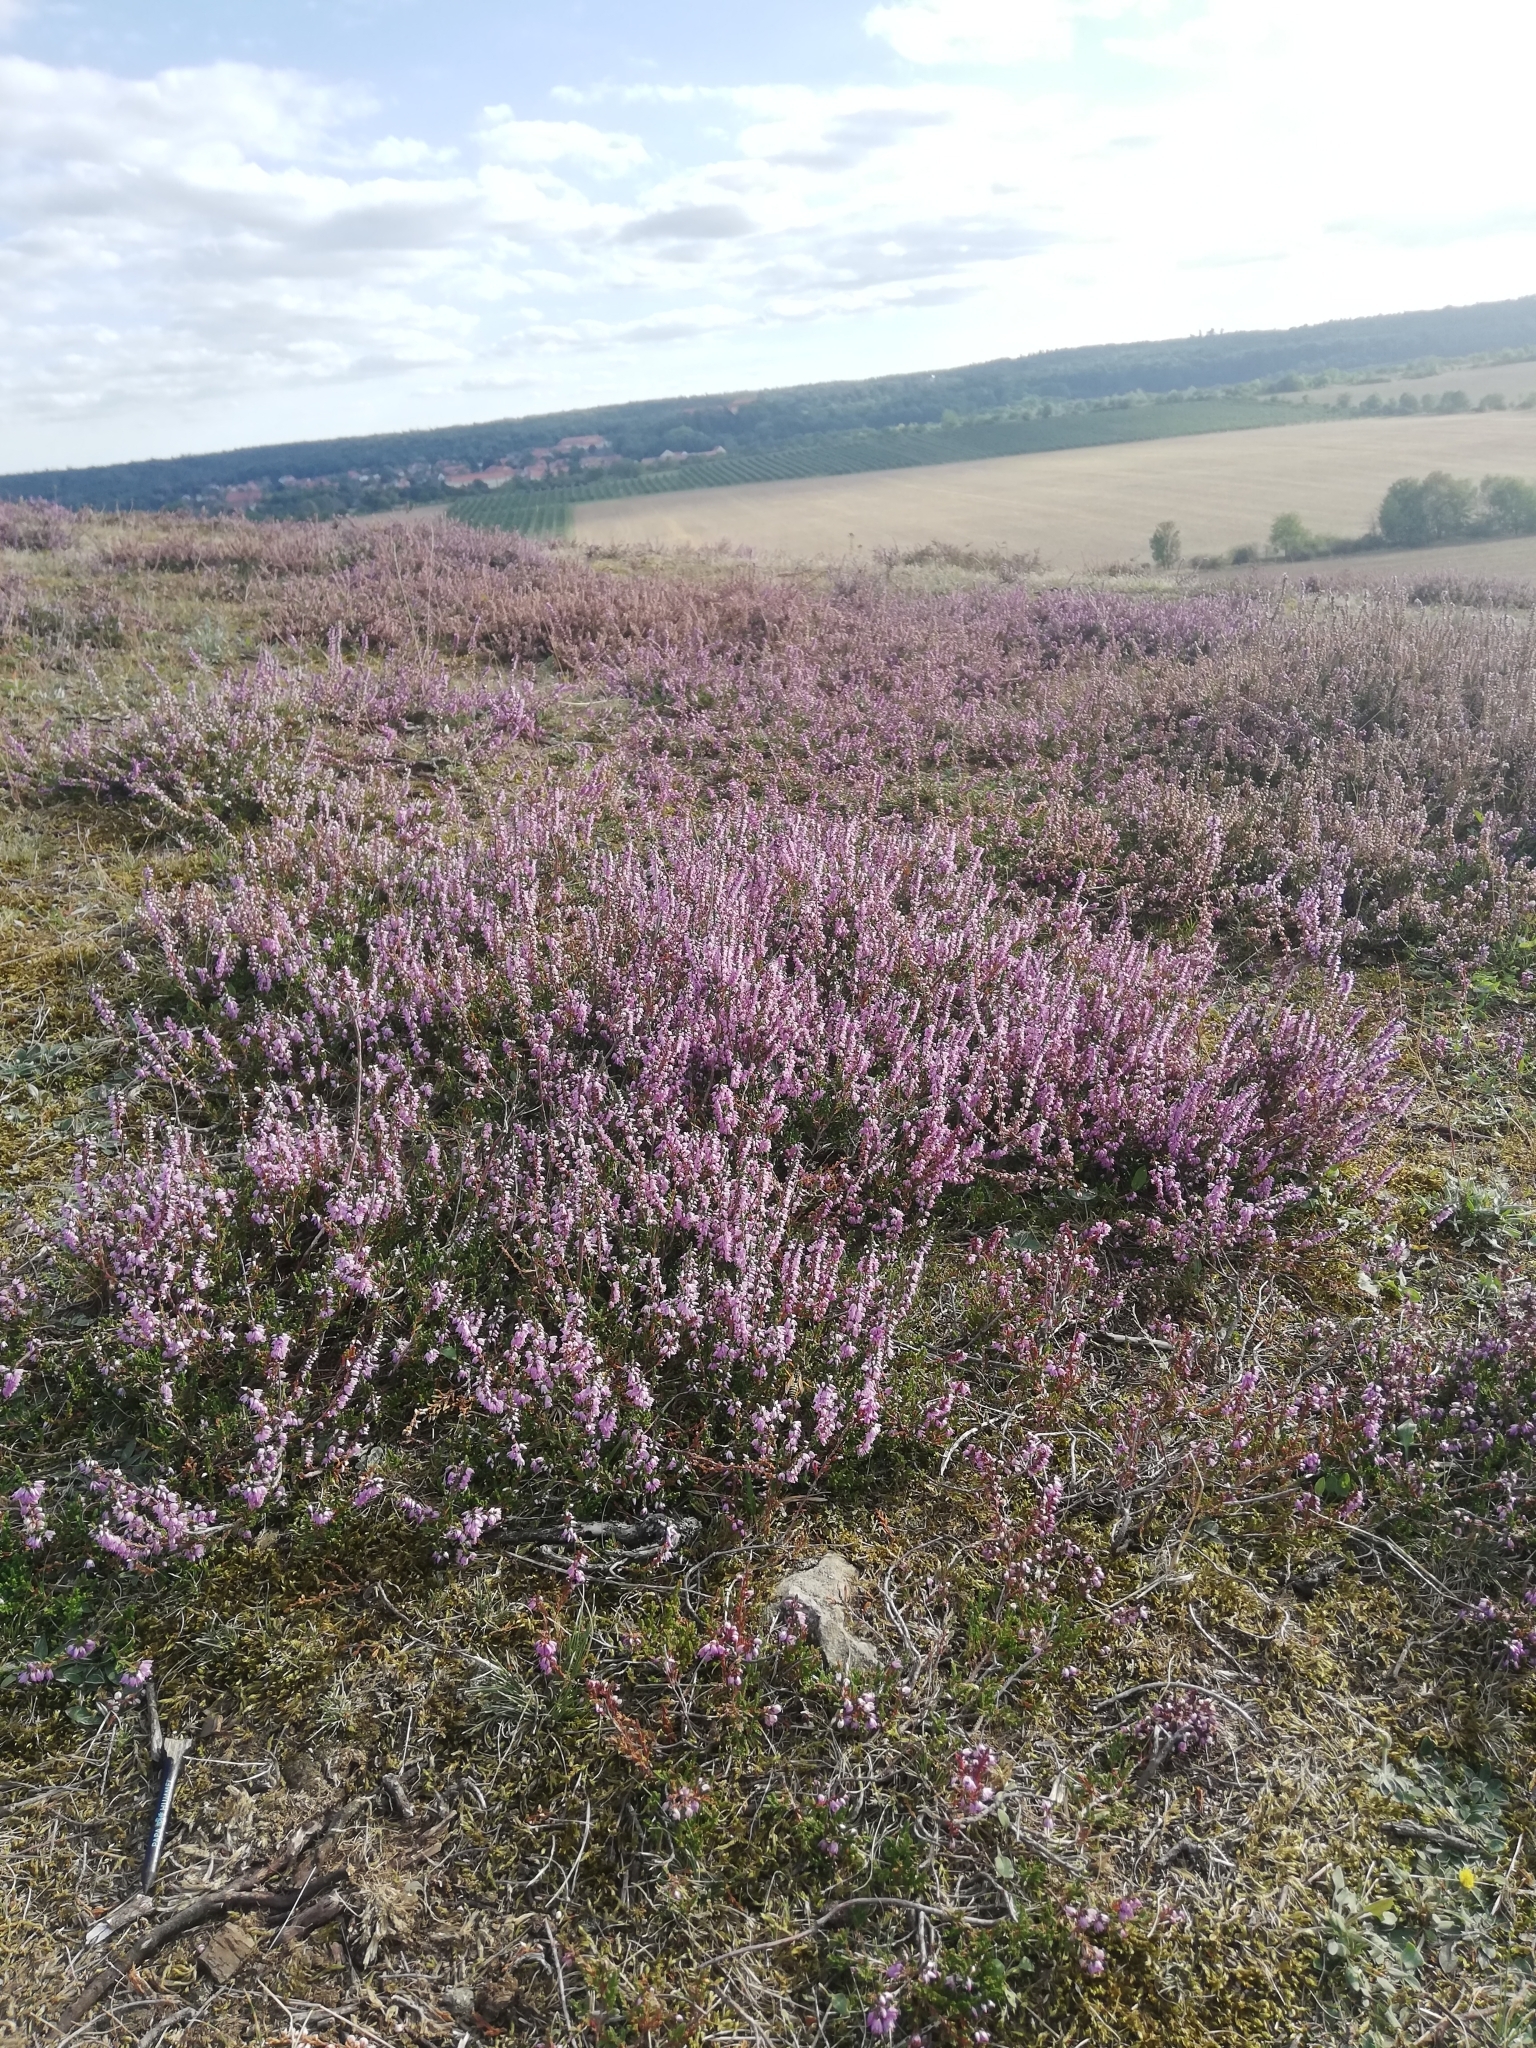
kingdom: Plantae
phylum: Tracheophyta
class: Magnoliopsida
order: Ericales
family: Ericaceae
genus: Calluna
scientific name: Calluna vulgaris
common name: Heather
